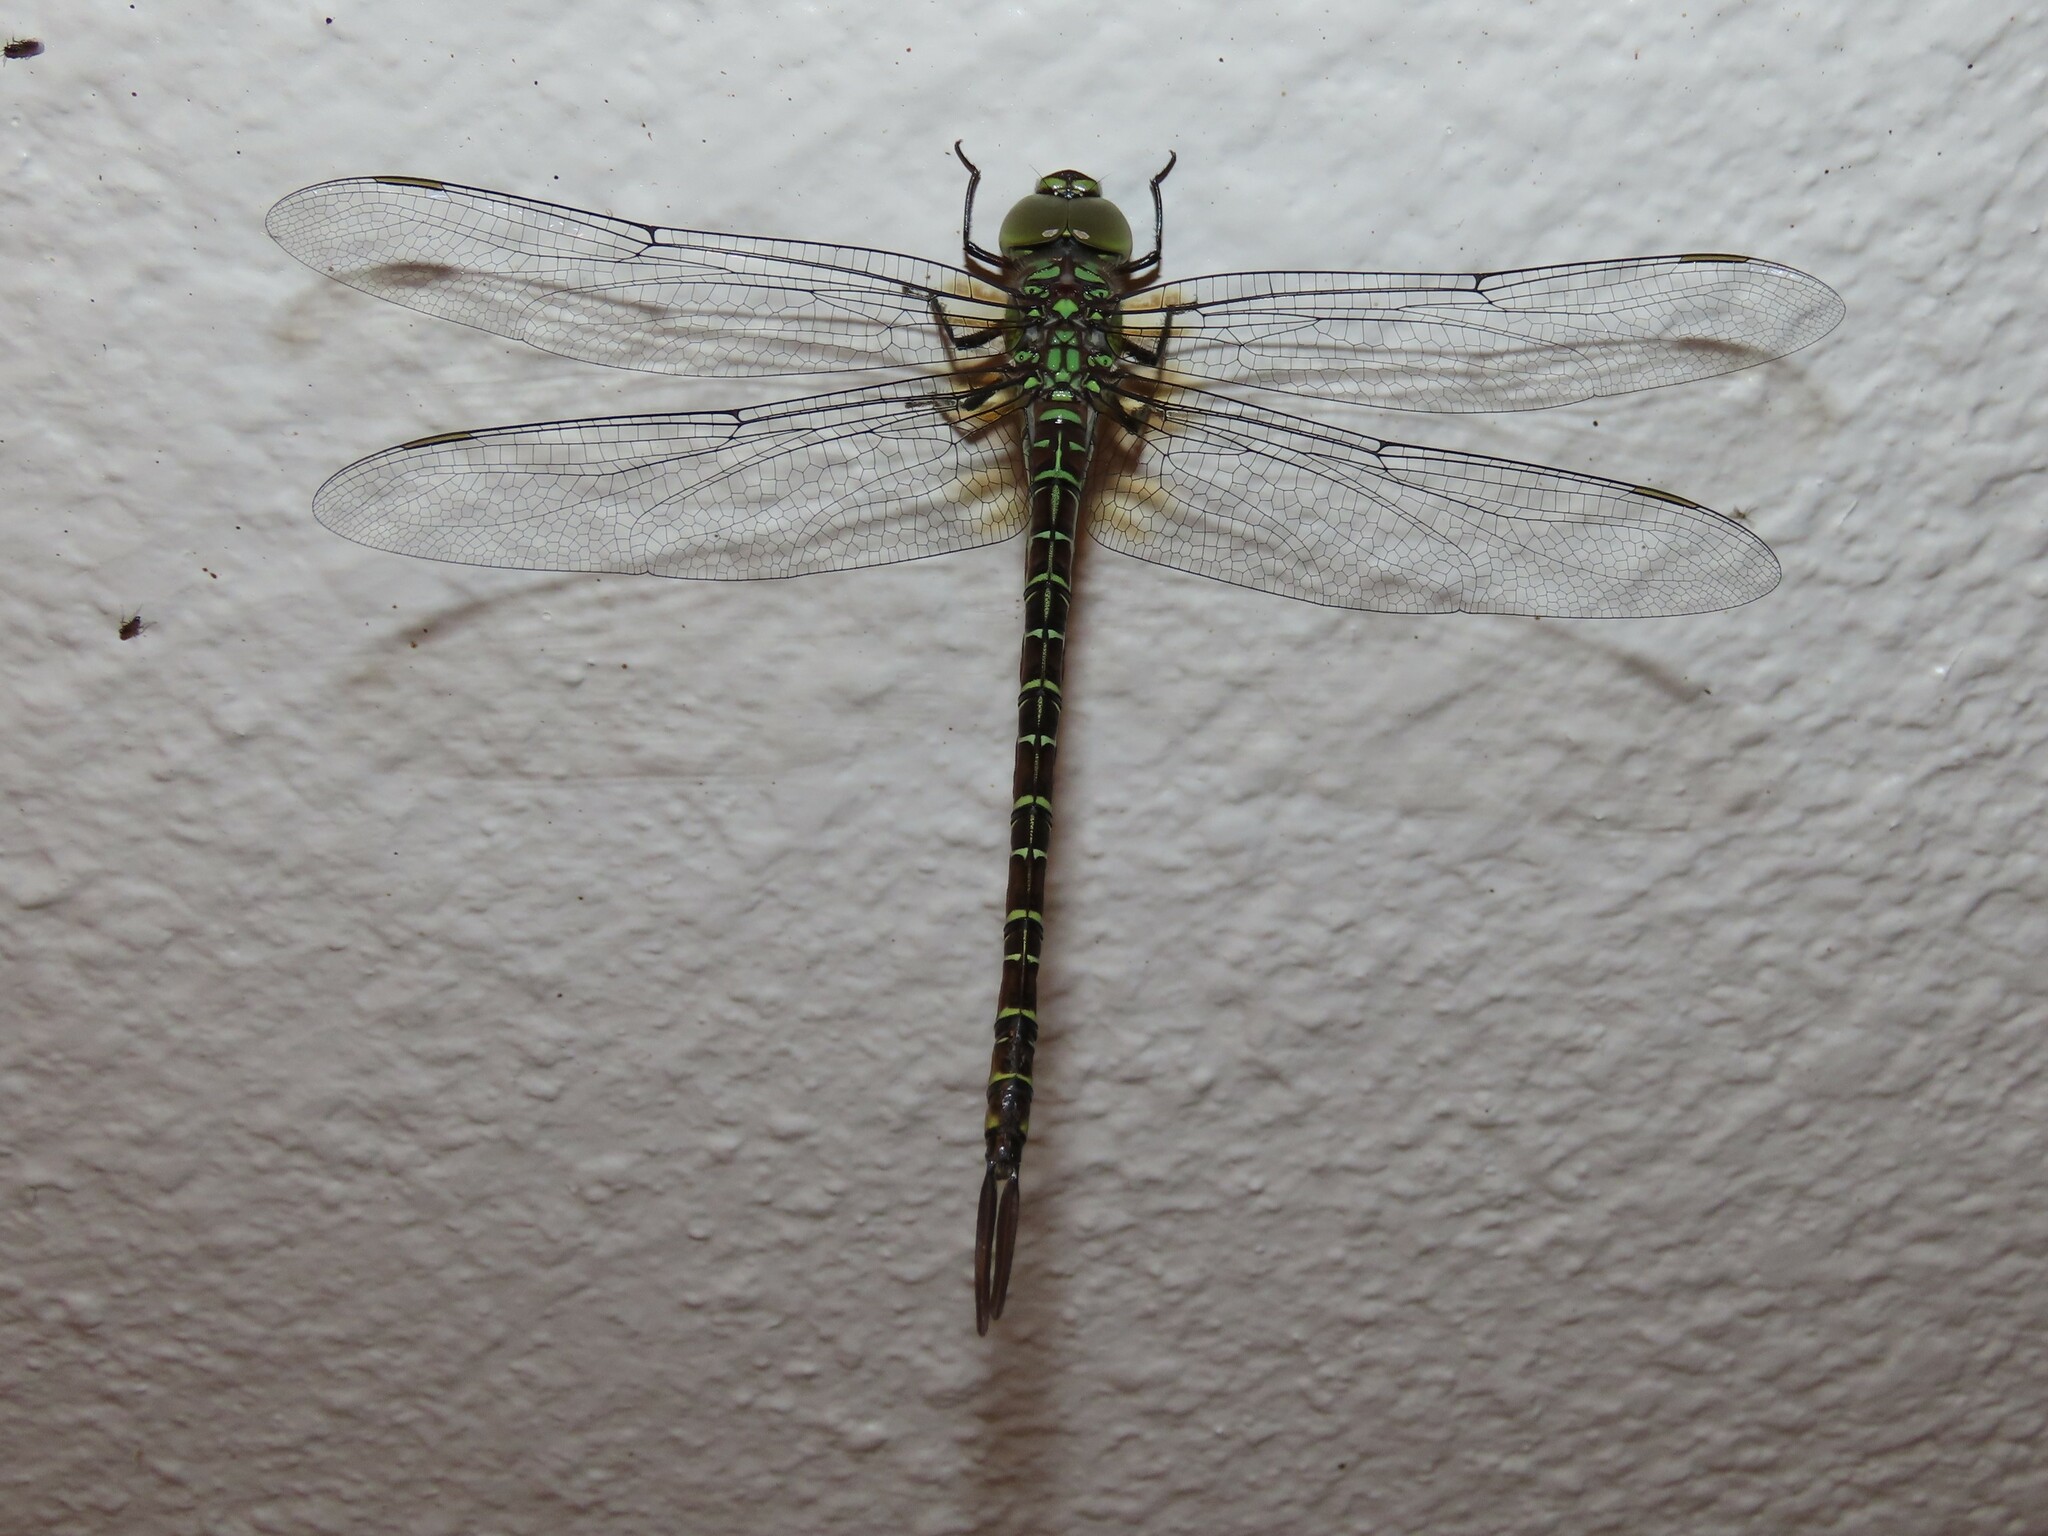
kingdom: Animalia
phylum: Arthropoda
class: Insecta
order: Odonata
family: Aeshnidae
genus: Coryphaeschna
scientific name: Coryphaeschna ingens
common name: Regal darner
